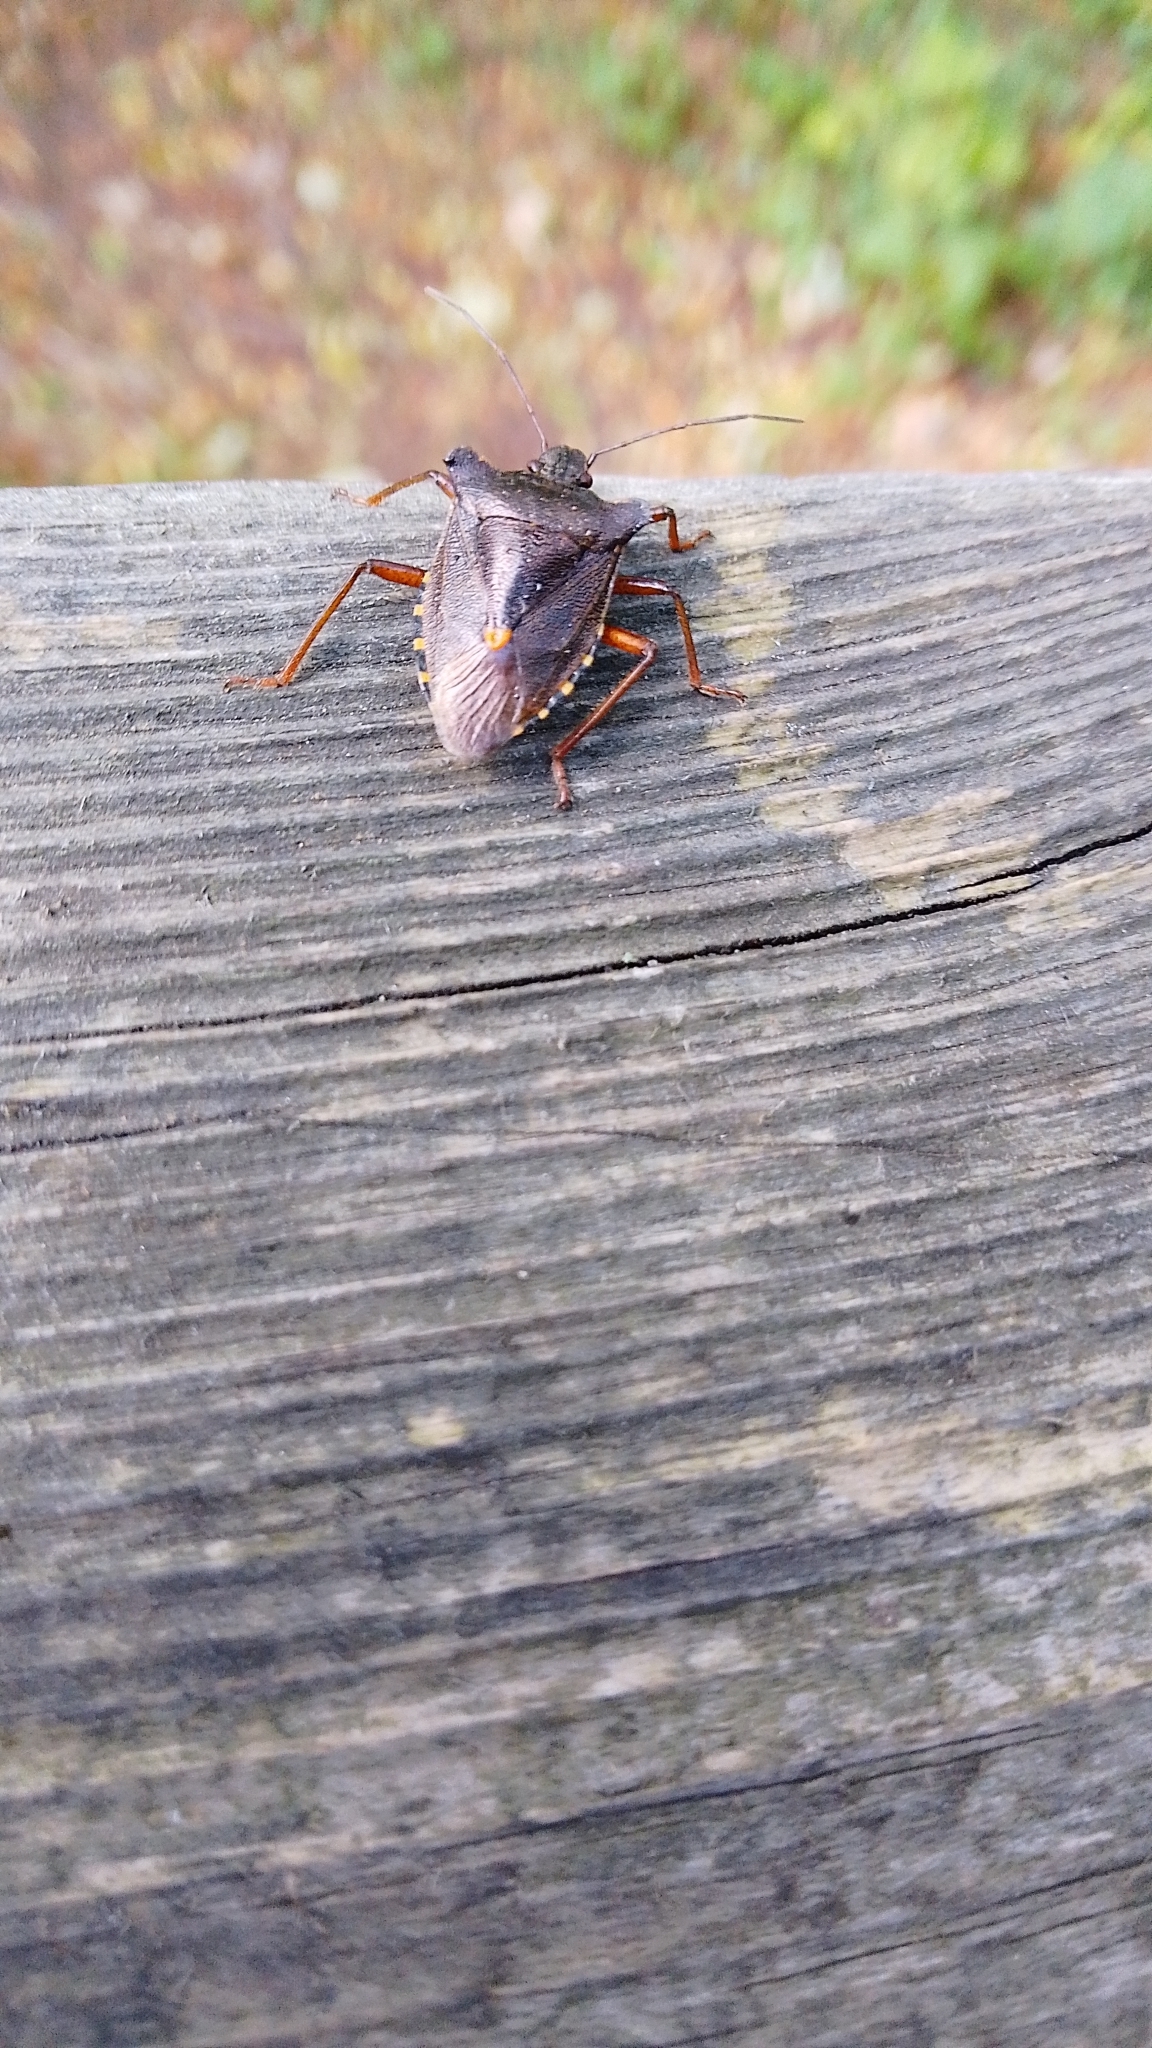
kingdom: Animalia
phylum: Arthropoda
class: Insecta
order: Hemiptera
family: Pentatomidae
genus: Pentatoma
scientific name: Pentatoma rufipes
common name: Forest bug
